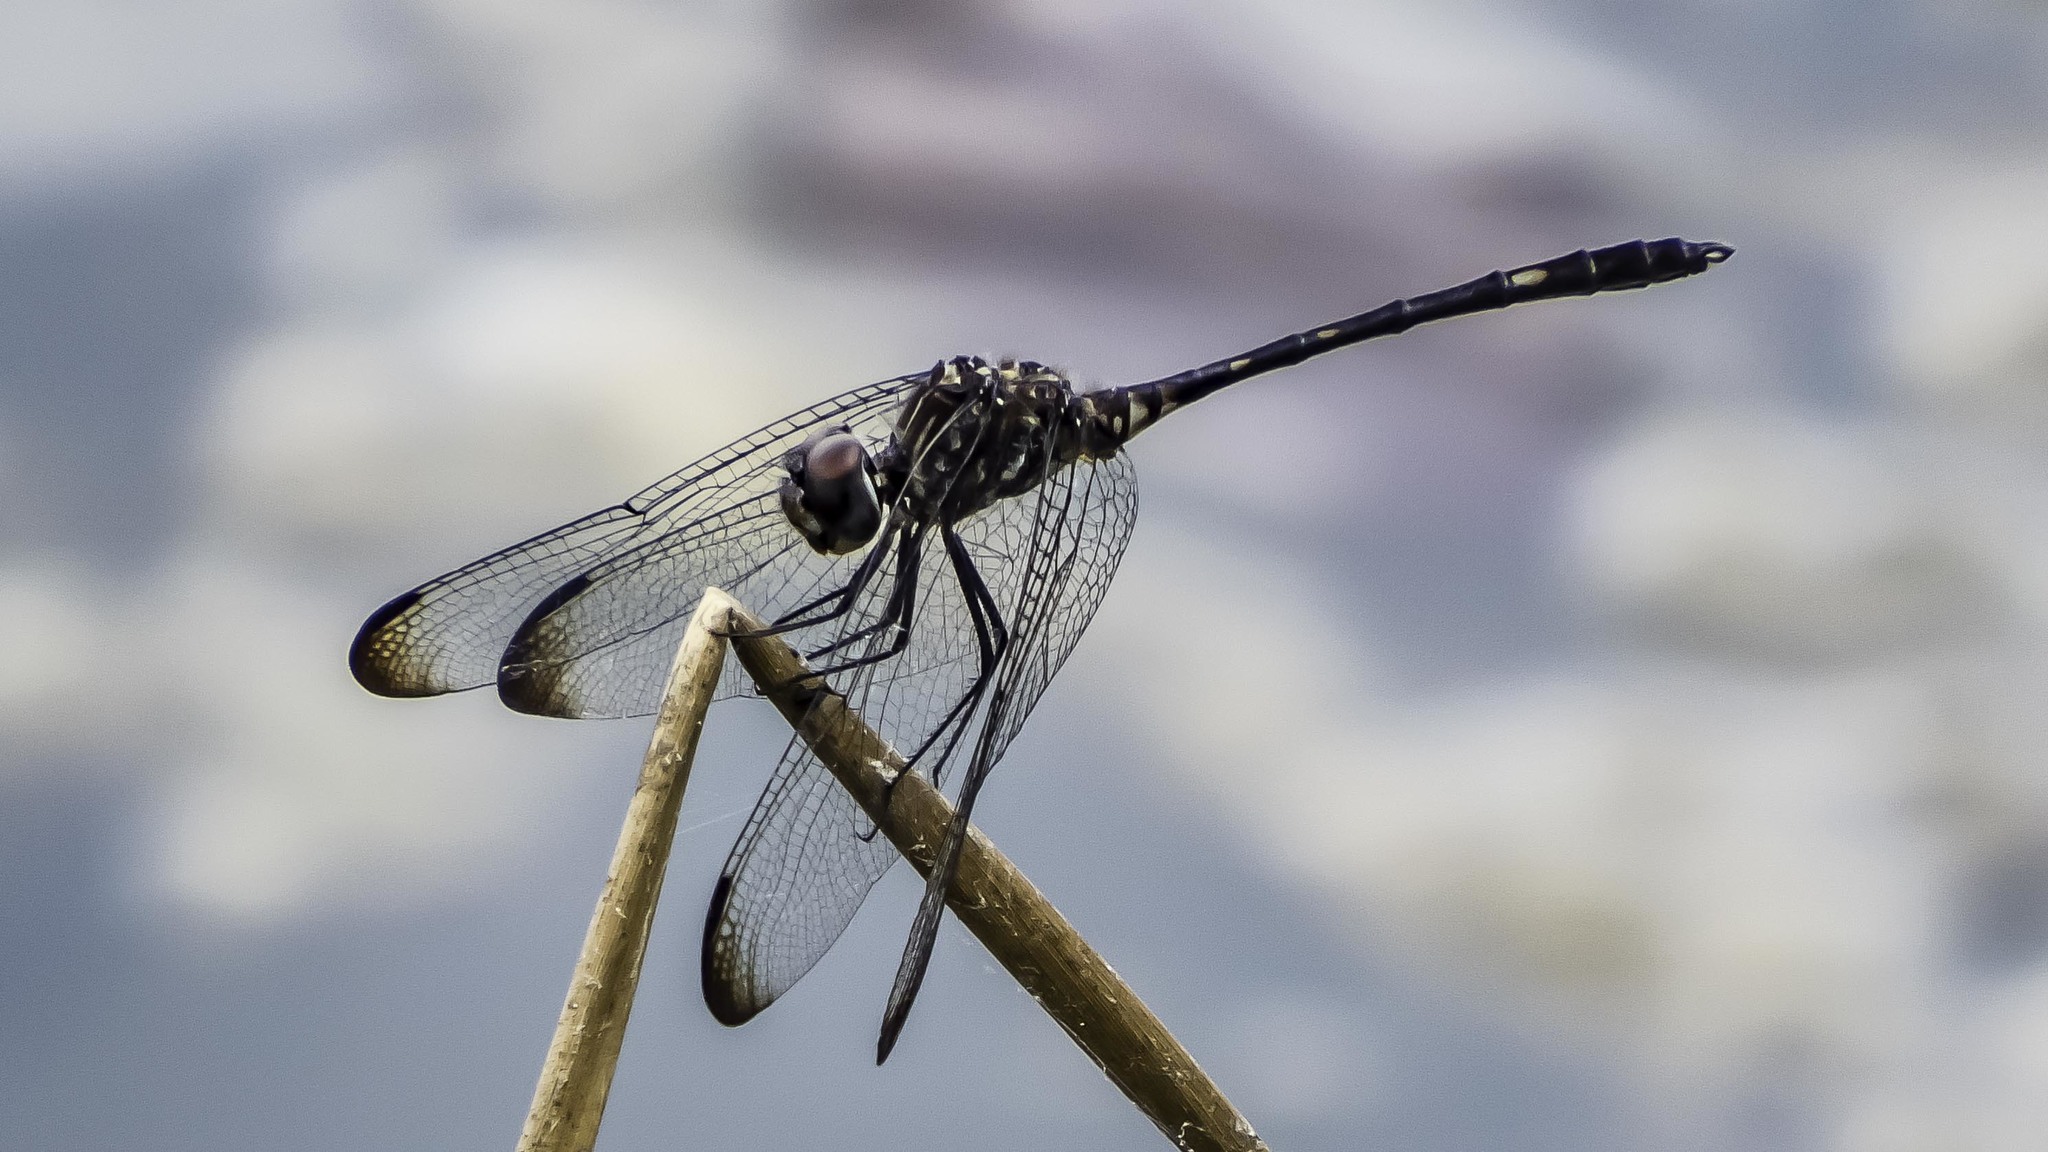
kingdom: Animalia
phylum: Arthropoda
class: Insecta
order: Odonata
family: Libellulidae
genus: Dythemis
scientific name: Dythemis velox
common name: Swift setwing
